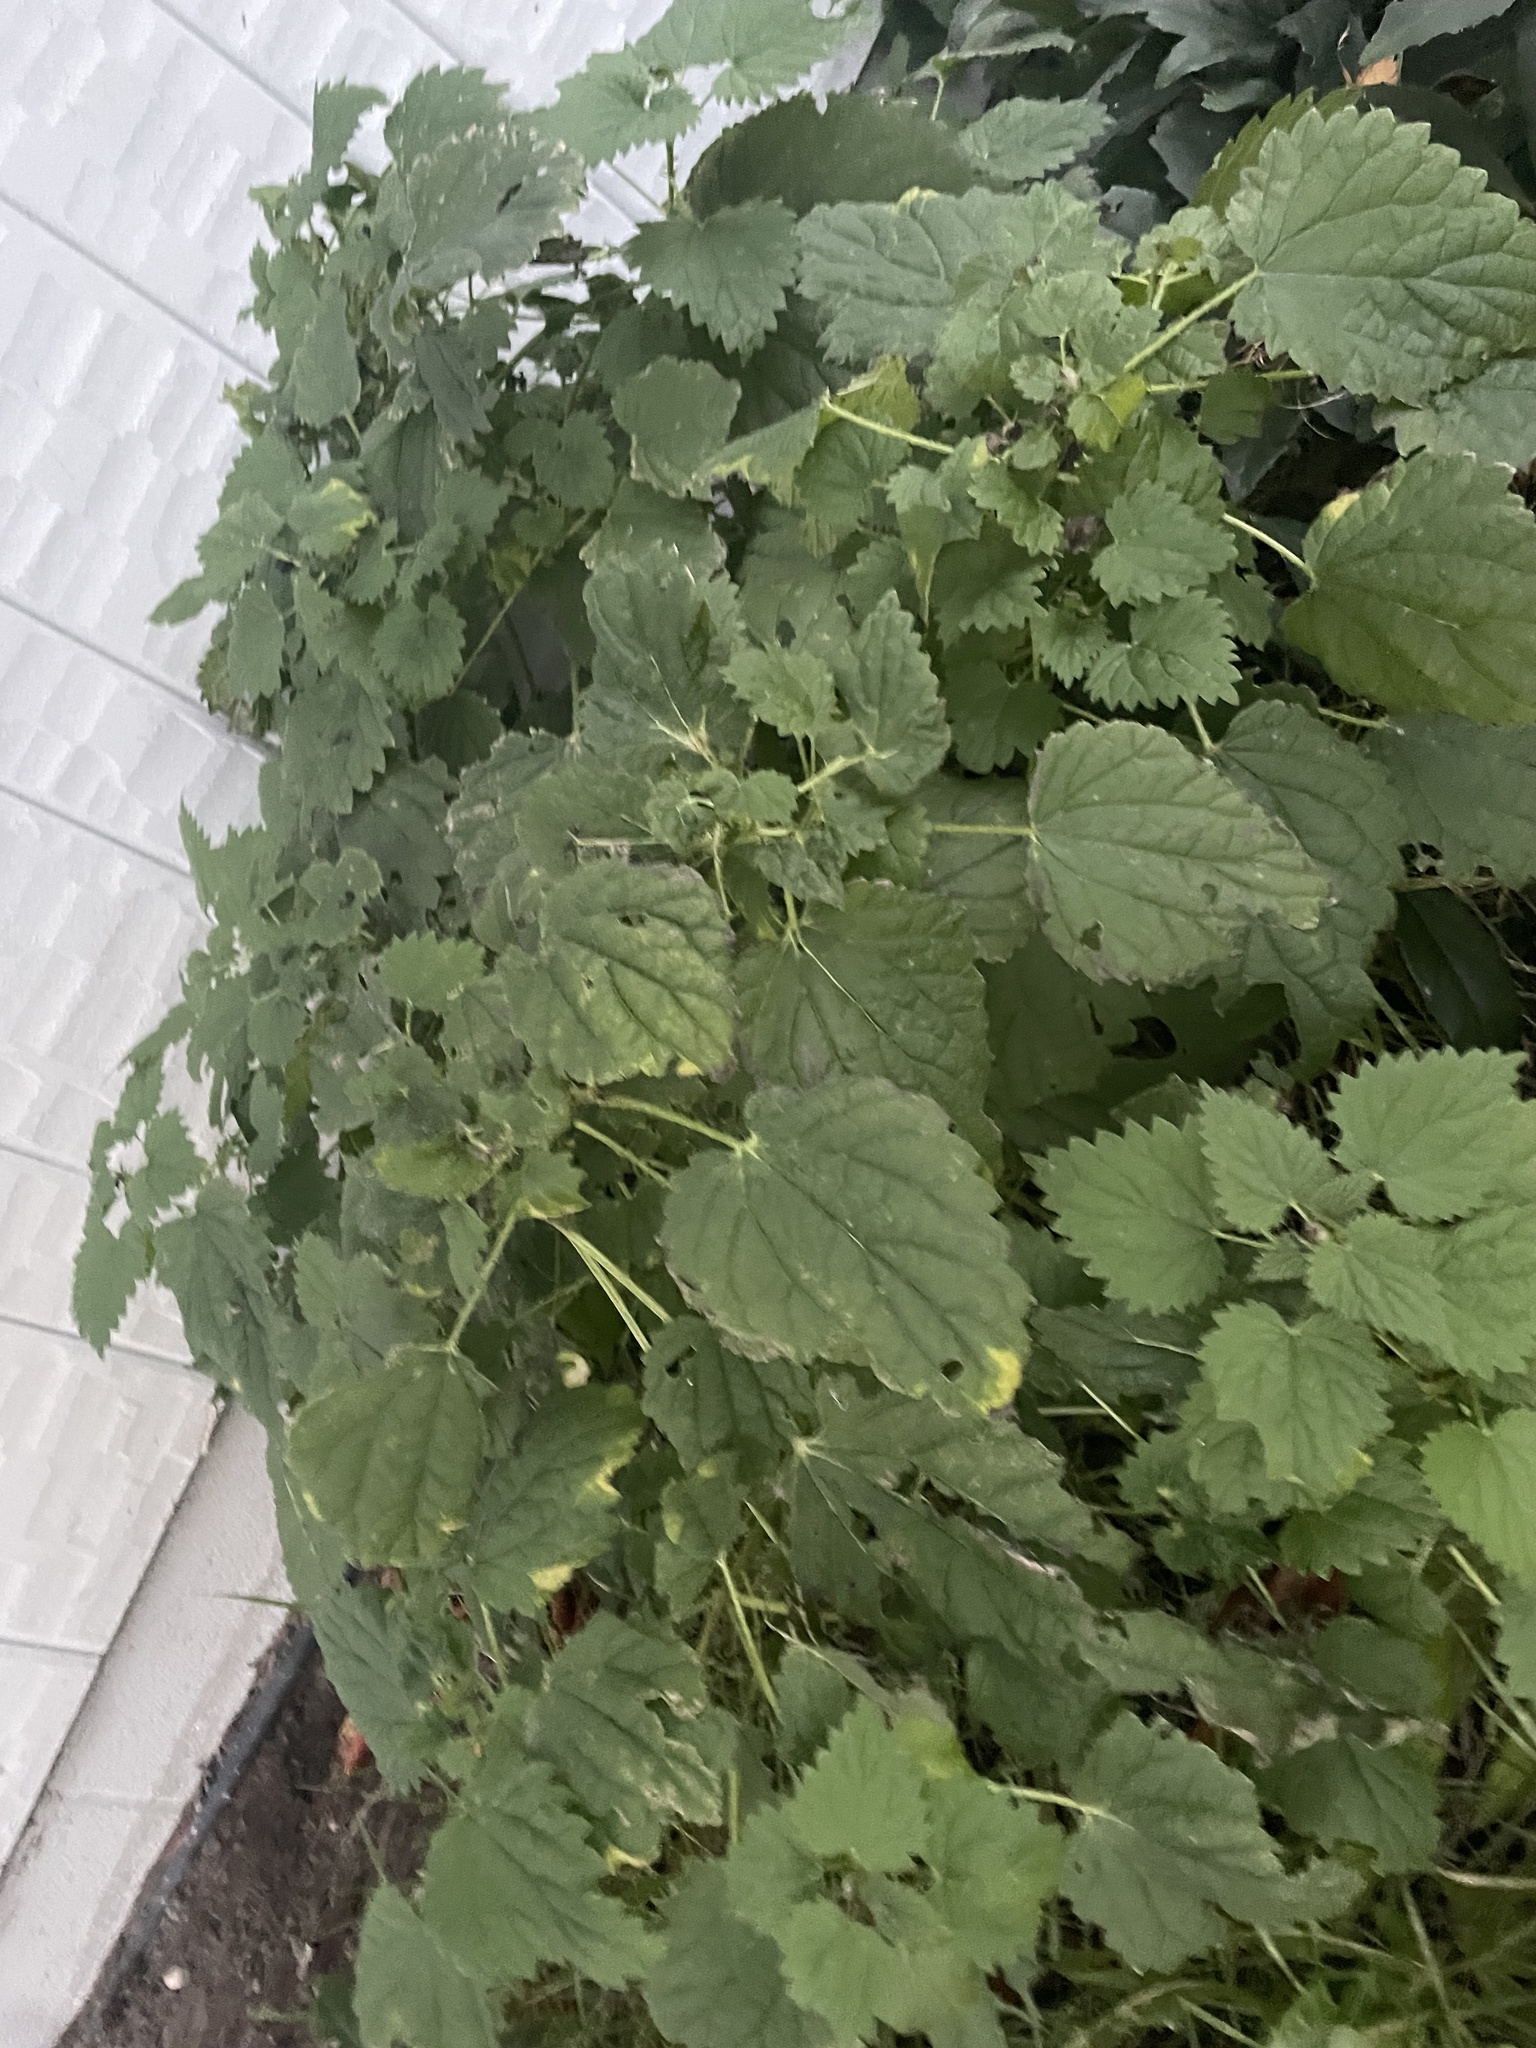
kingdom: Plantae
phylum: Tracheophyta
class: Magnoliopsida
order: Rosales
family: Urticaceae
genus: Urtica
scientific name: Urtica gracilis
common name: Slender stinging nettle
